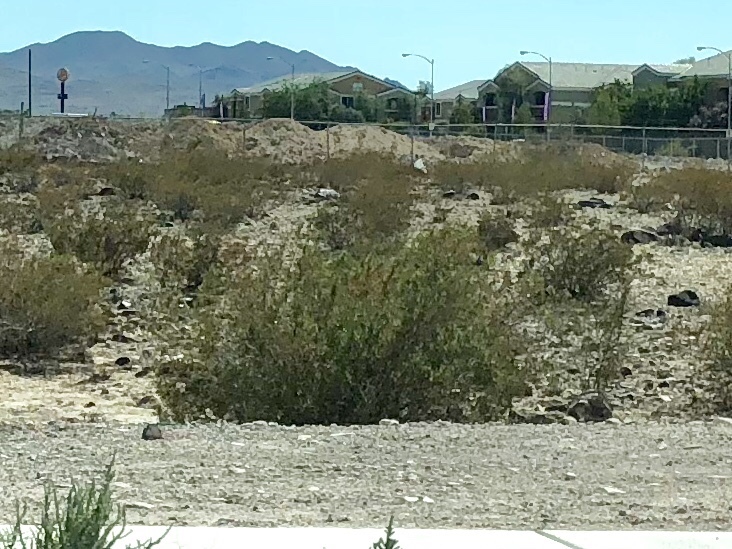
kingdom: Plantae
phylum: Tracheophyta
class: Magnoliopsida
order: Zygophyllales
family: Zygophyllaceae
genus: Larrea
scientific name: Larrea tridentata
